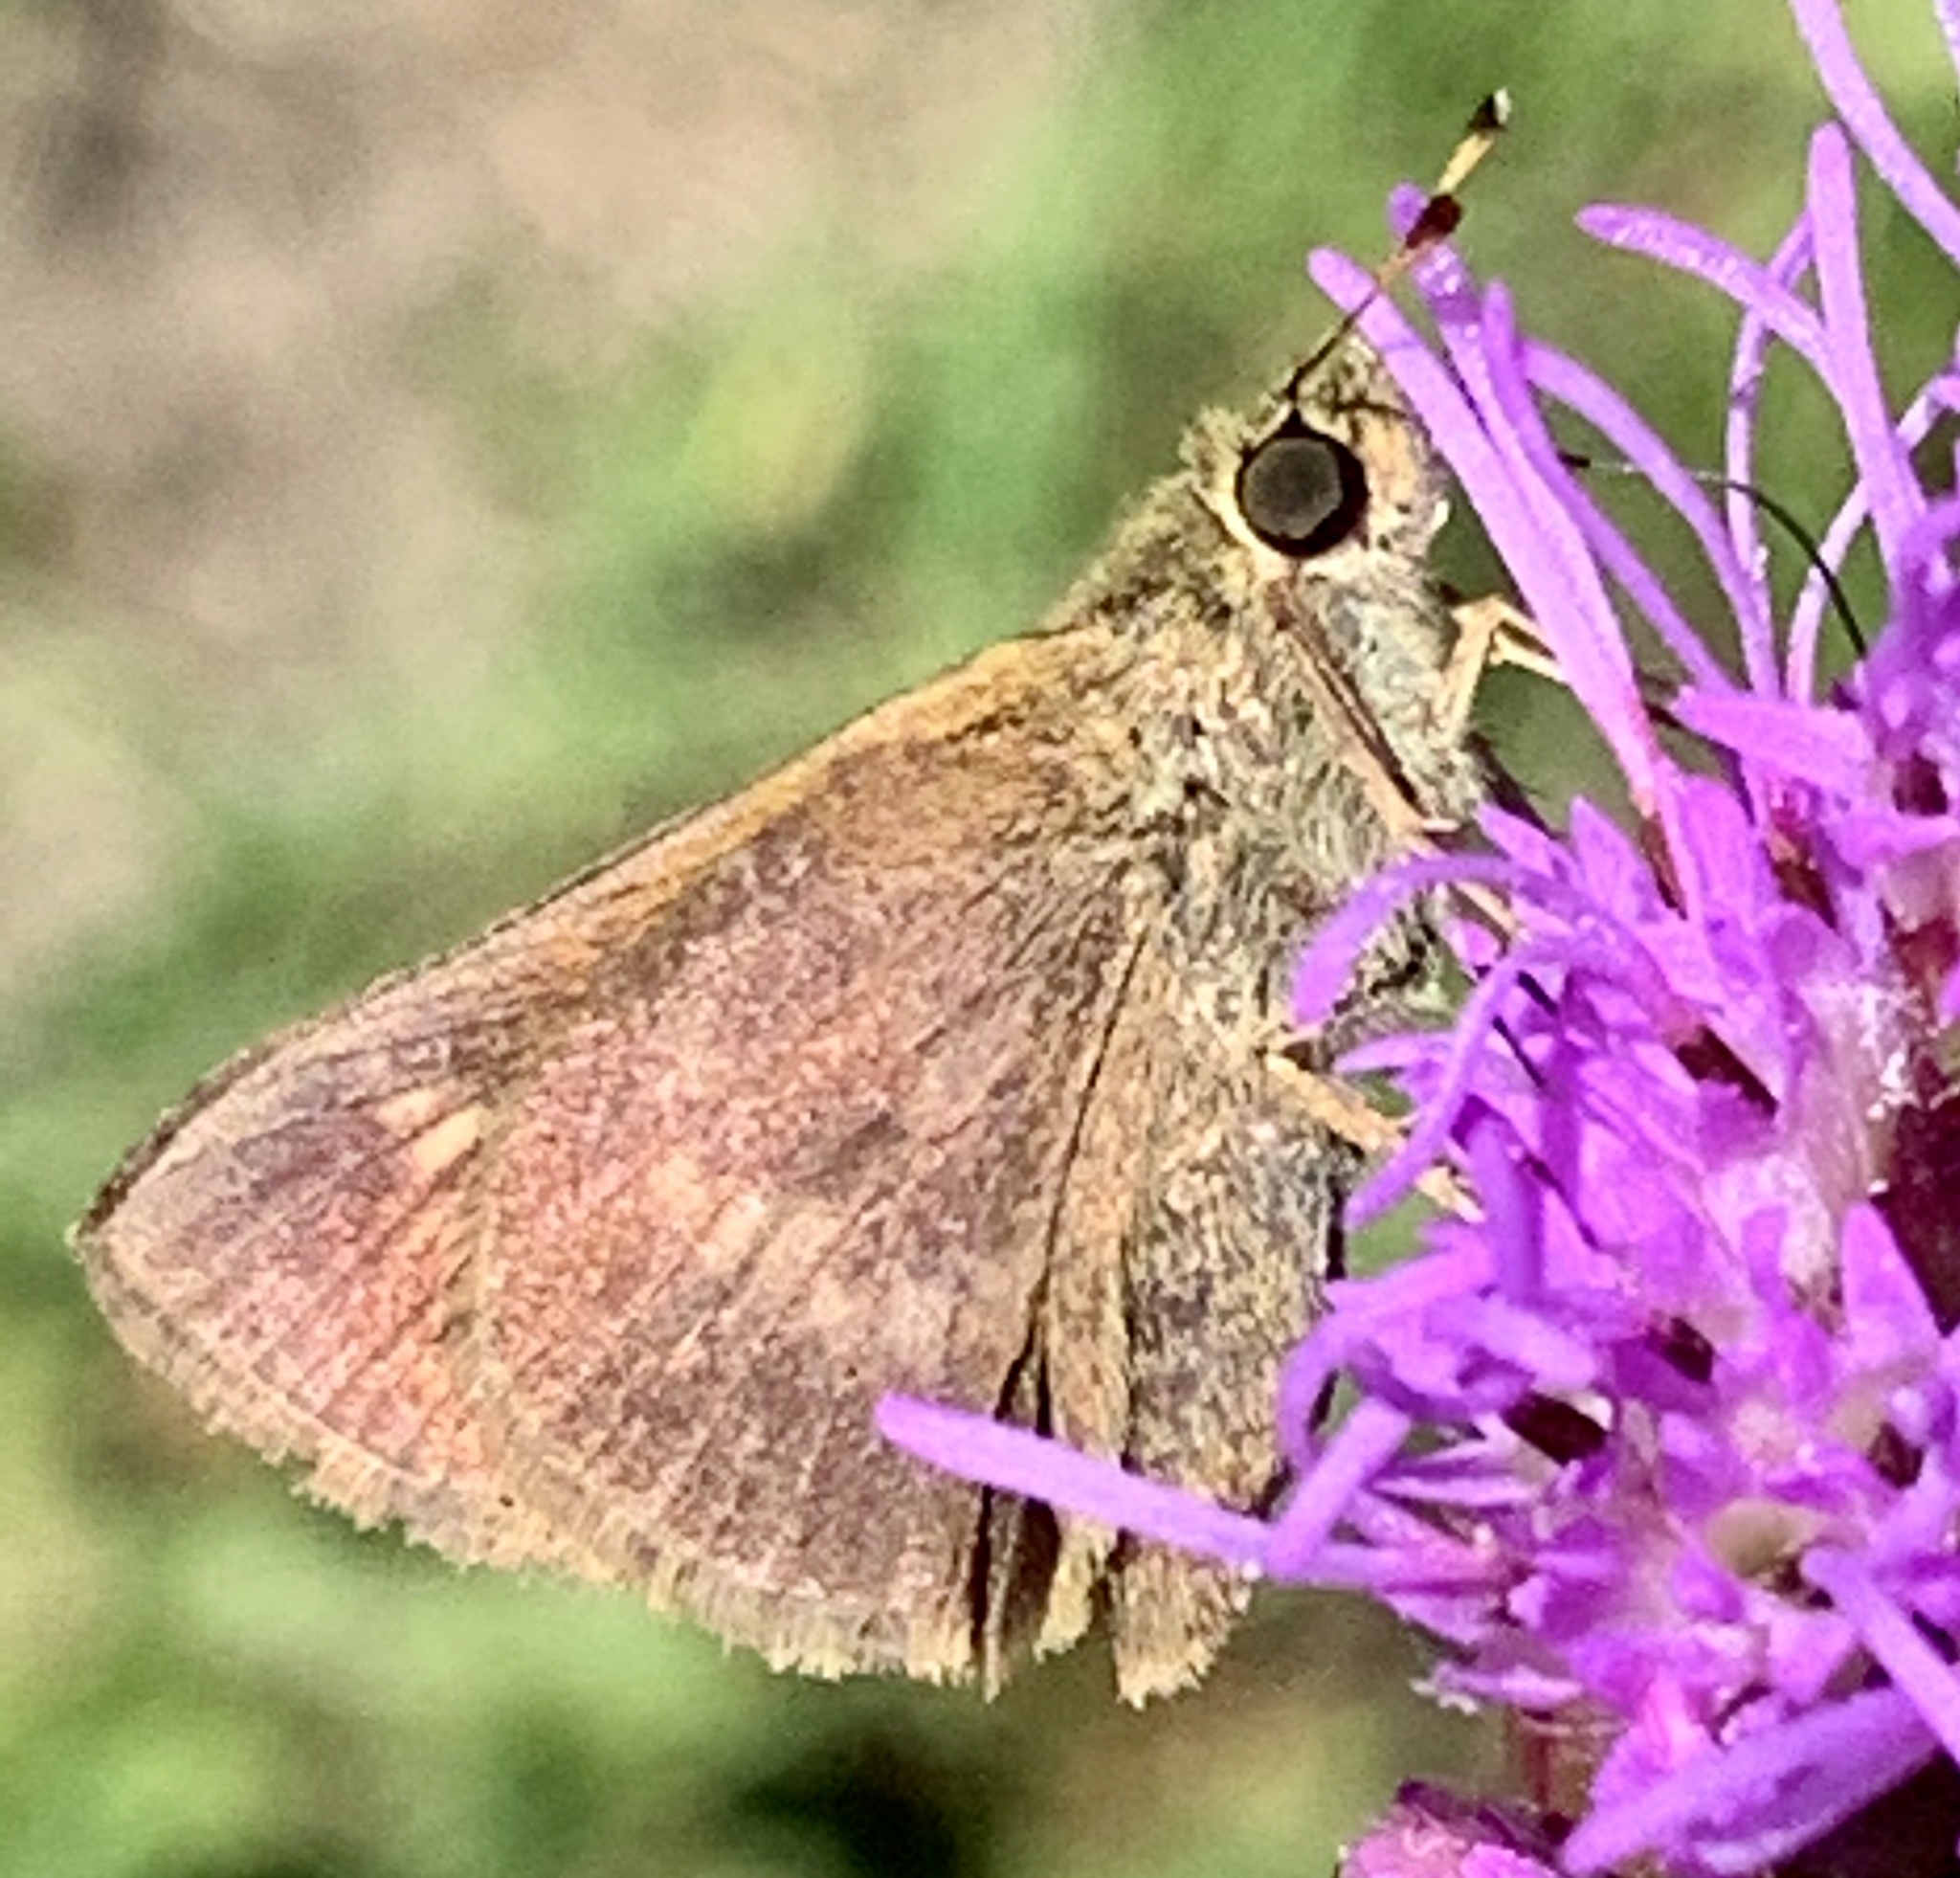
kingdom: Animalia
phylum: Arthropoda
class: Insecta
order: Lepidoptera
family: Hesperiidae
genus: Polites
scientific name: Polites egeremet
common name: Northern broken-dash
